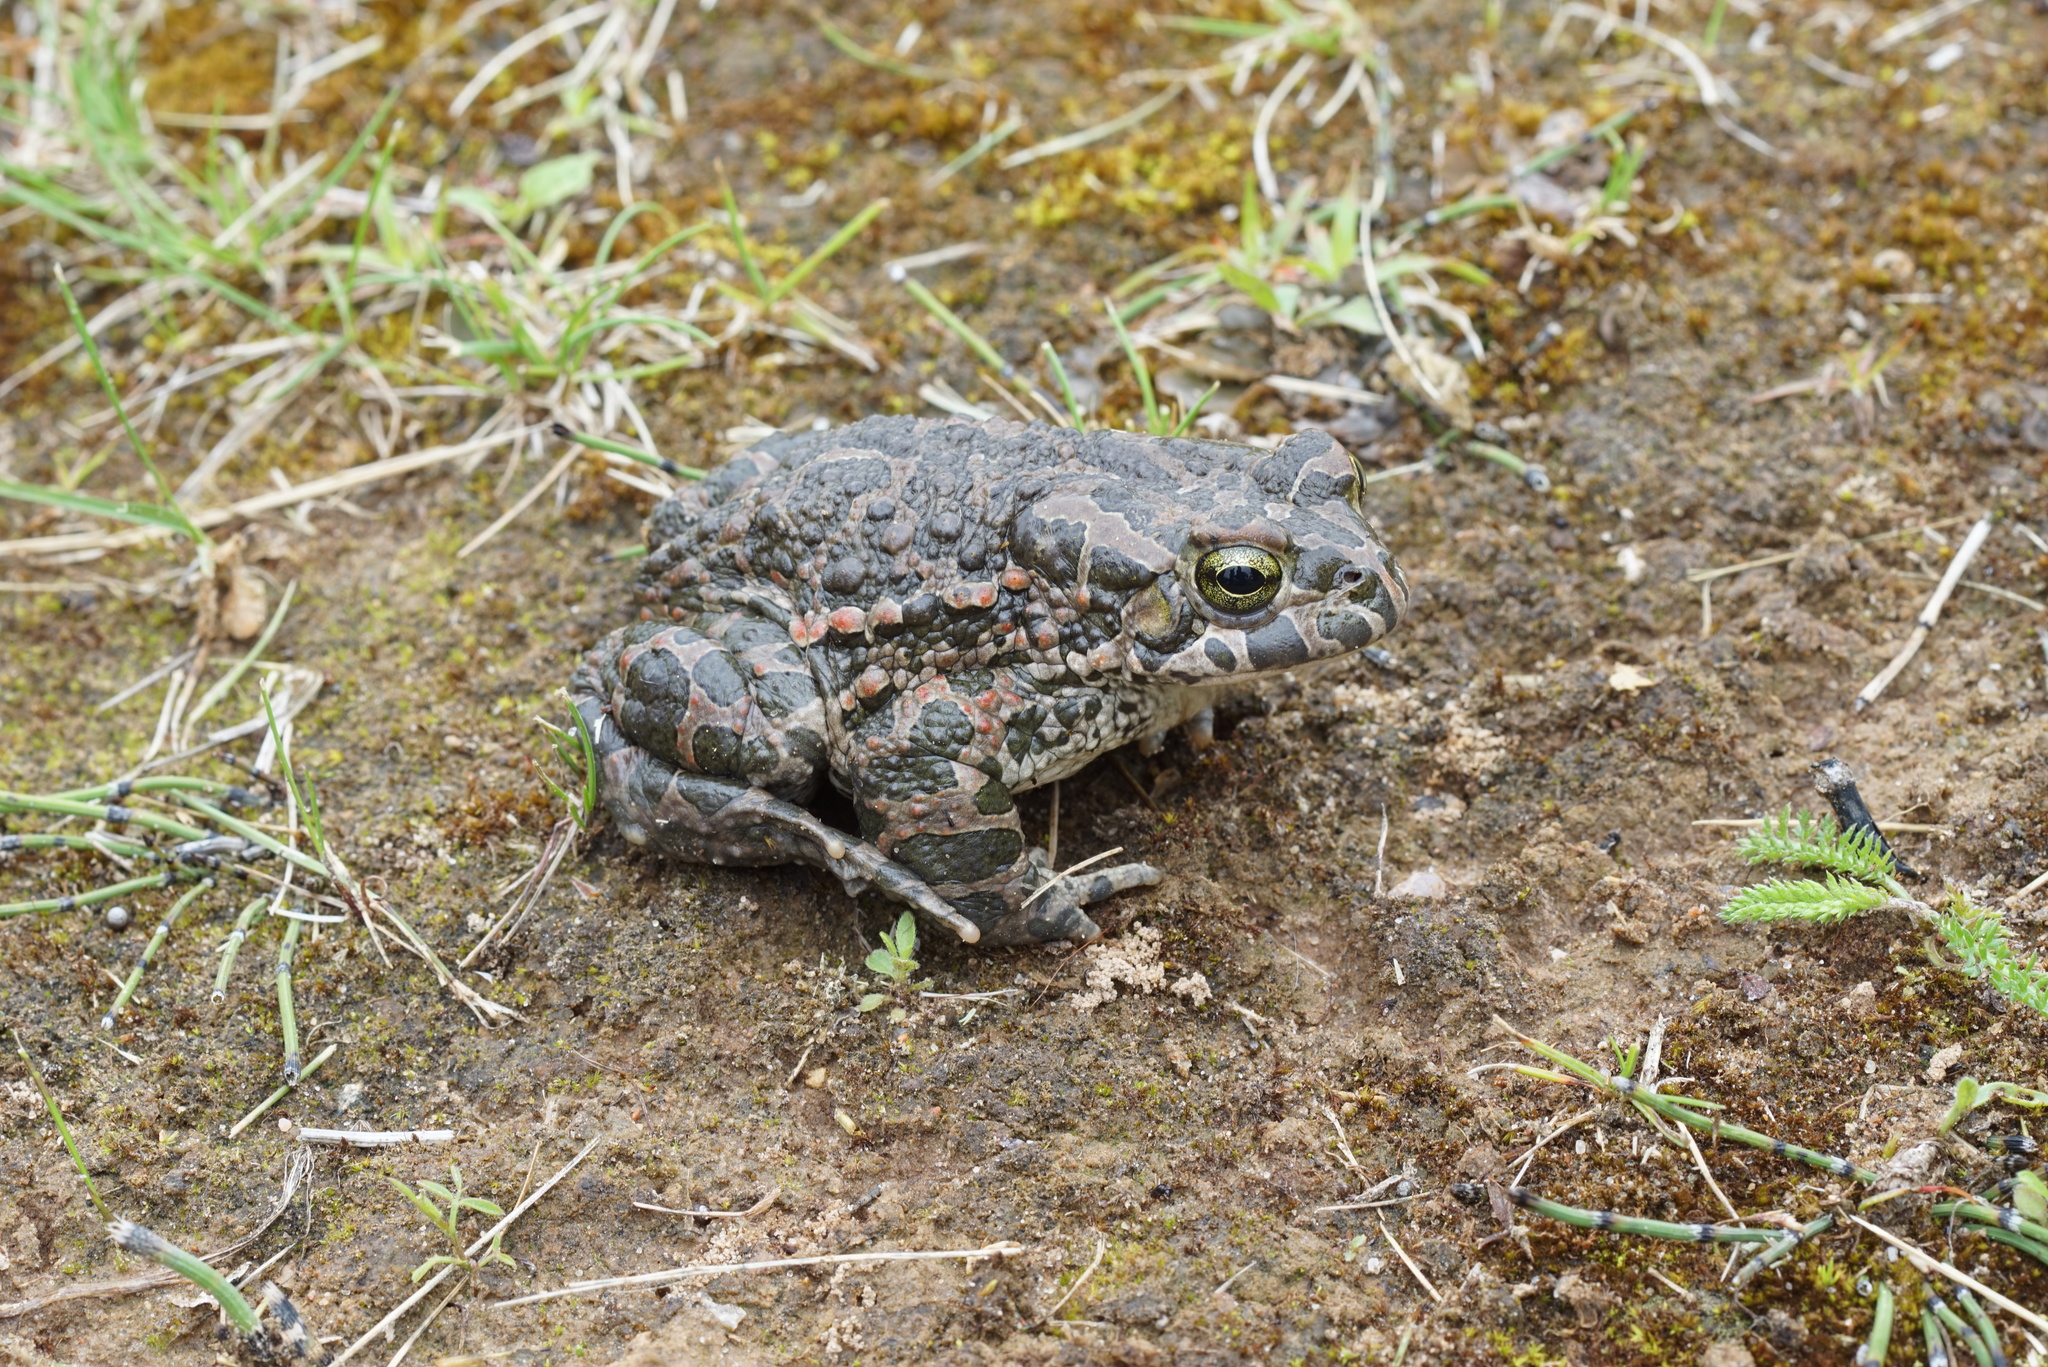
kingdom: Animalia
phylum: Chordata
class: Amphibia
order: Anura
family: Bufonidae
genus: Bufotes
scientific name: Bufotes viridis
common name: European green toad
